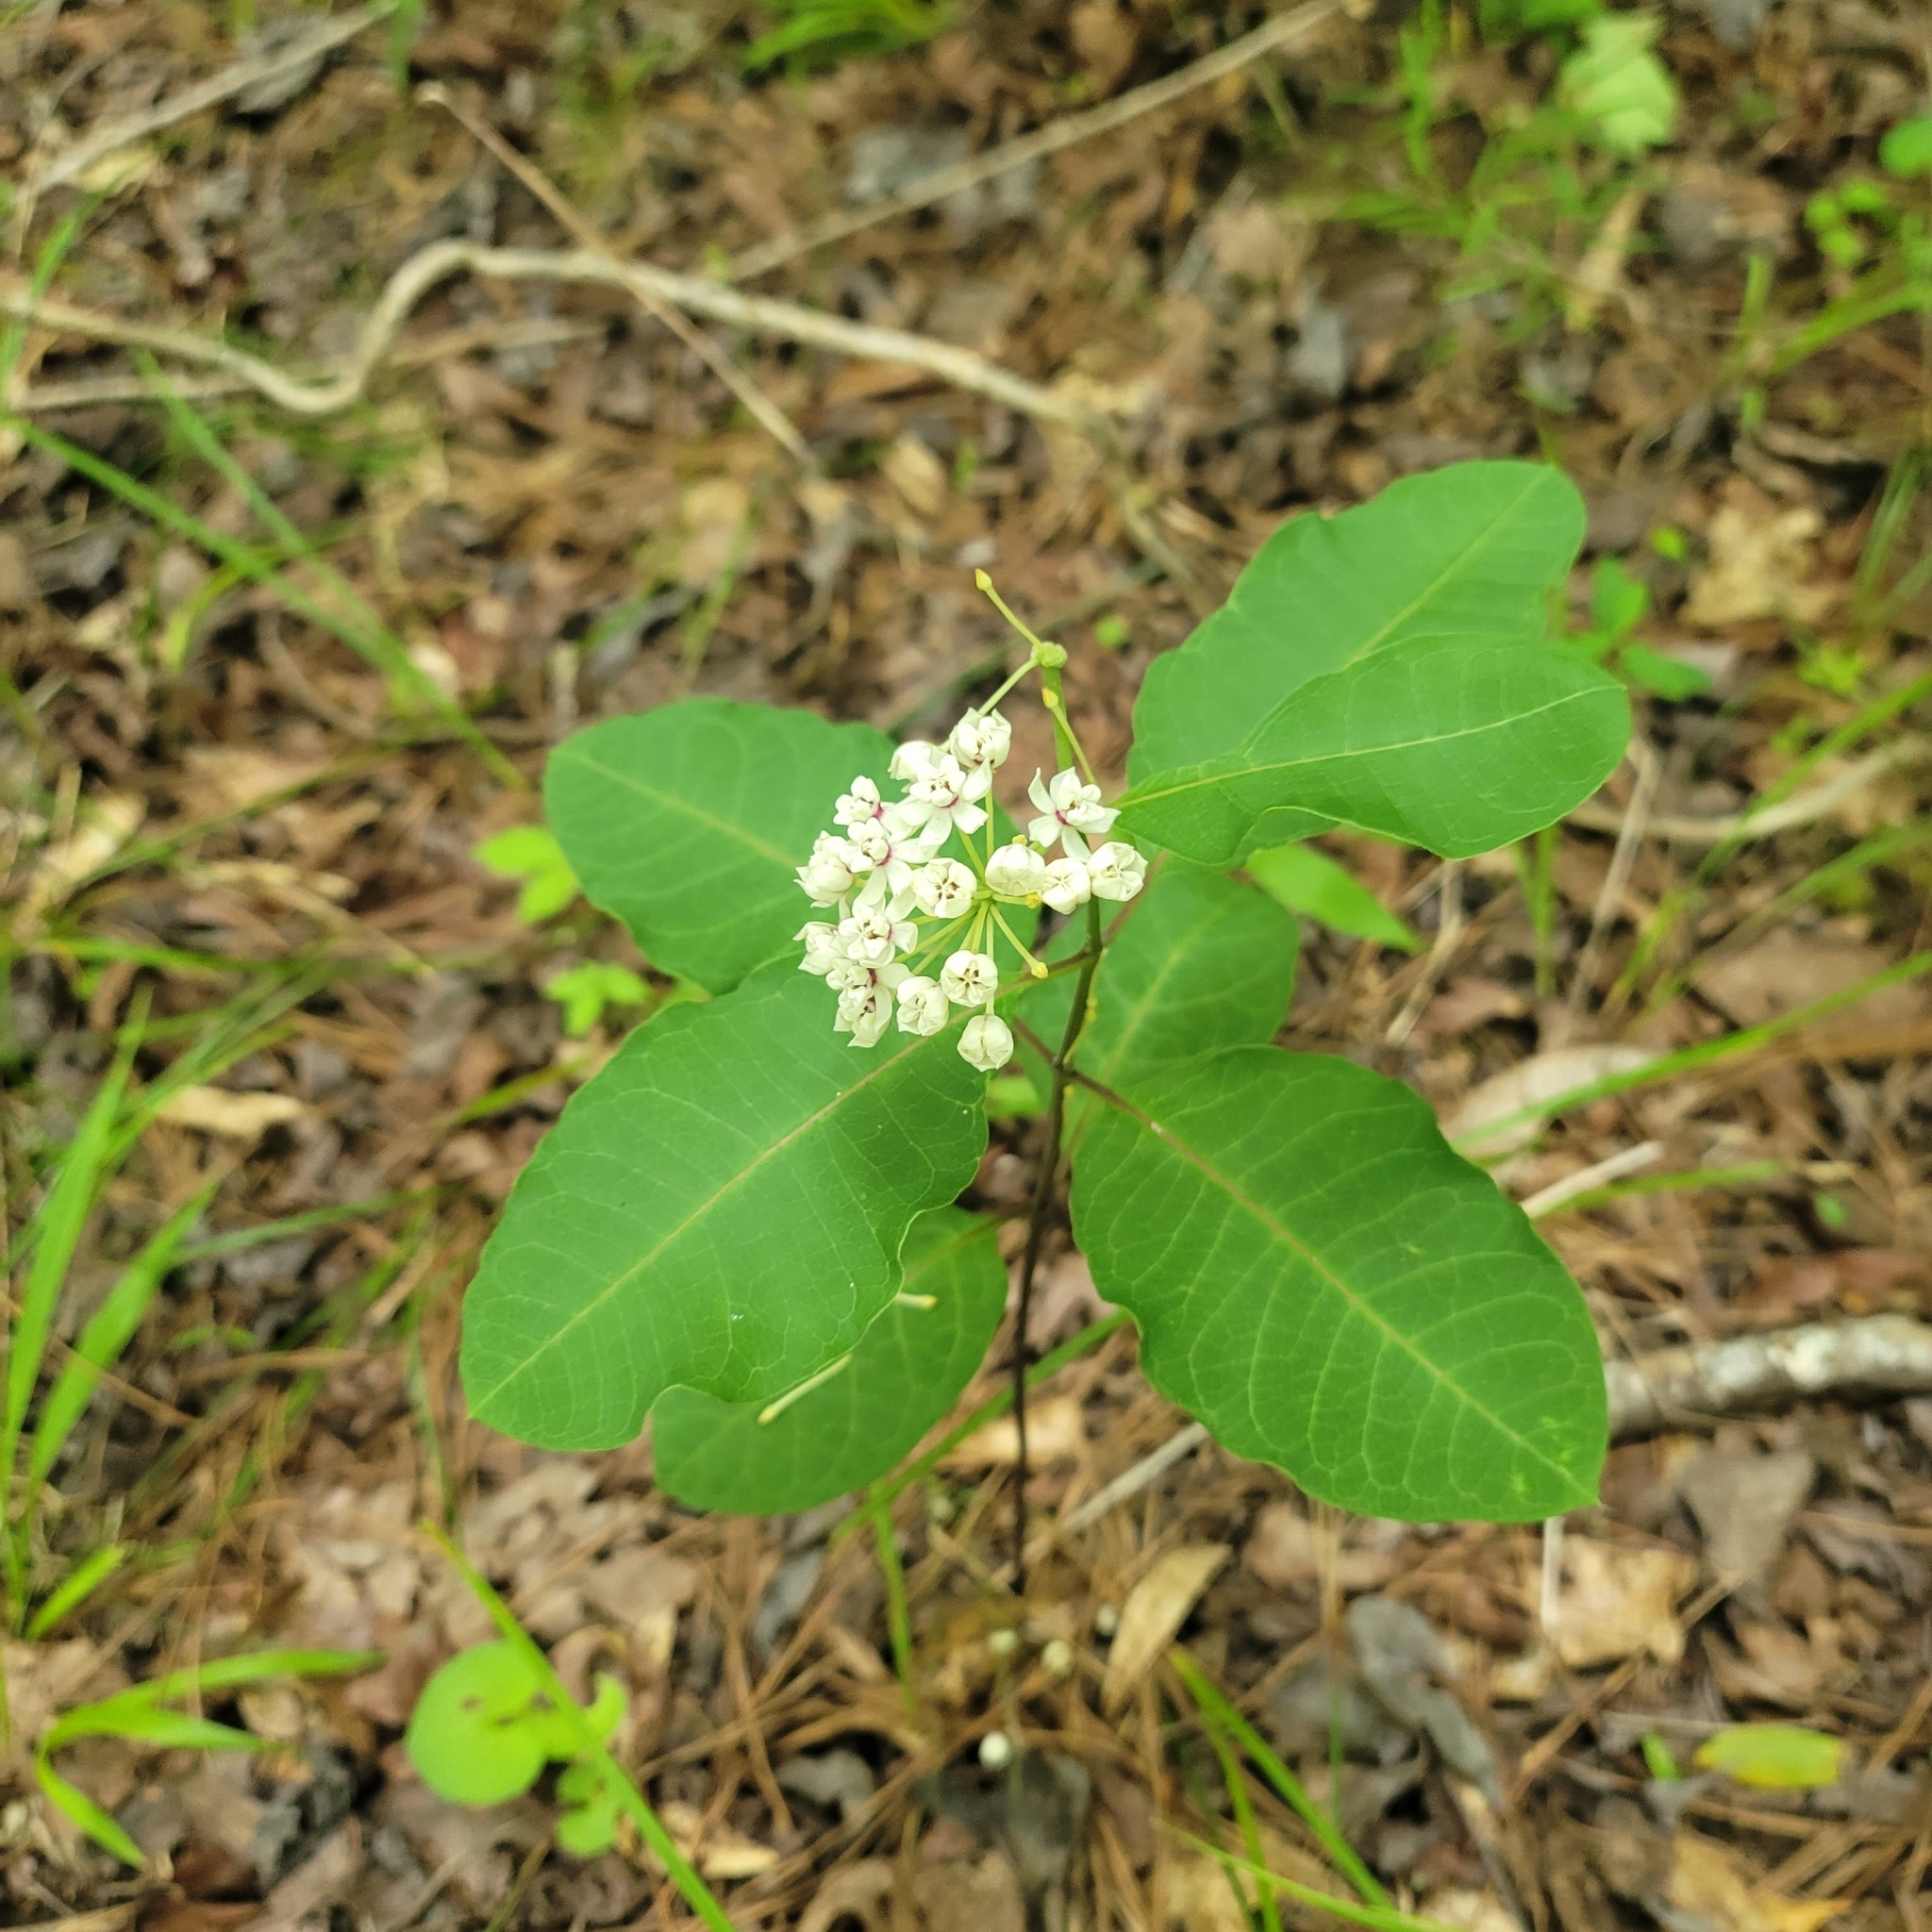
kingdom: Plantae
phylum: Tracheophyta
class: Magnoliopsida
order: Gentianales
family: Apocynaceae
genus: Asclepias
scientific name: Asclepias variegata
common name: Variegated milkweed
